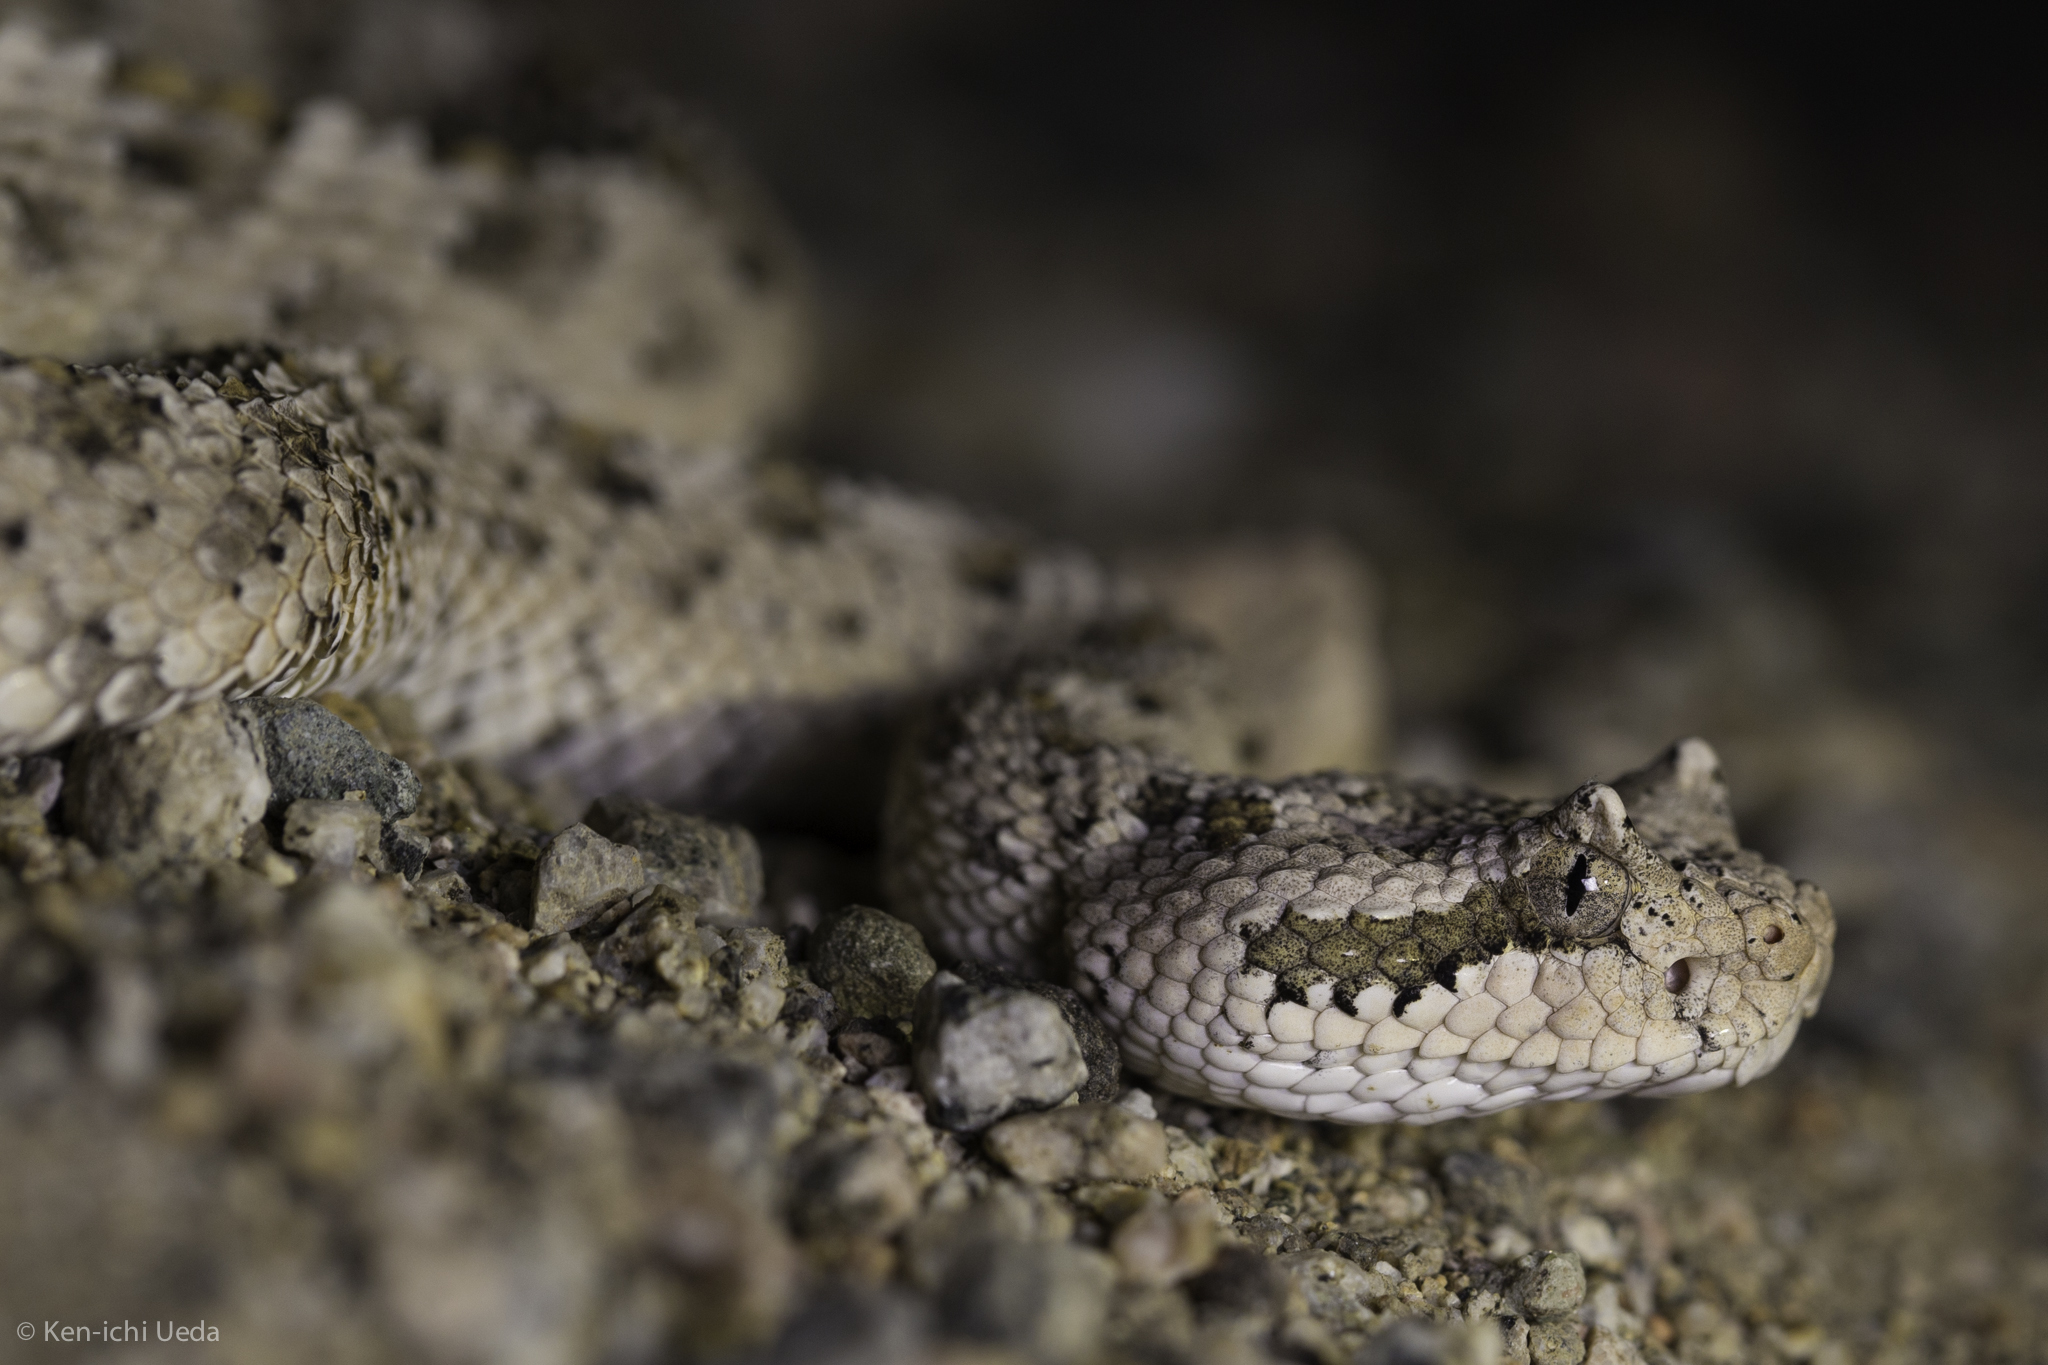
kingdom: Animalia
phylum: Chordata
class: Squamata
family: Viperidae
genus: Crotalus
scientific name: Crotalus cerastes
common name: Sidewinder
